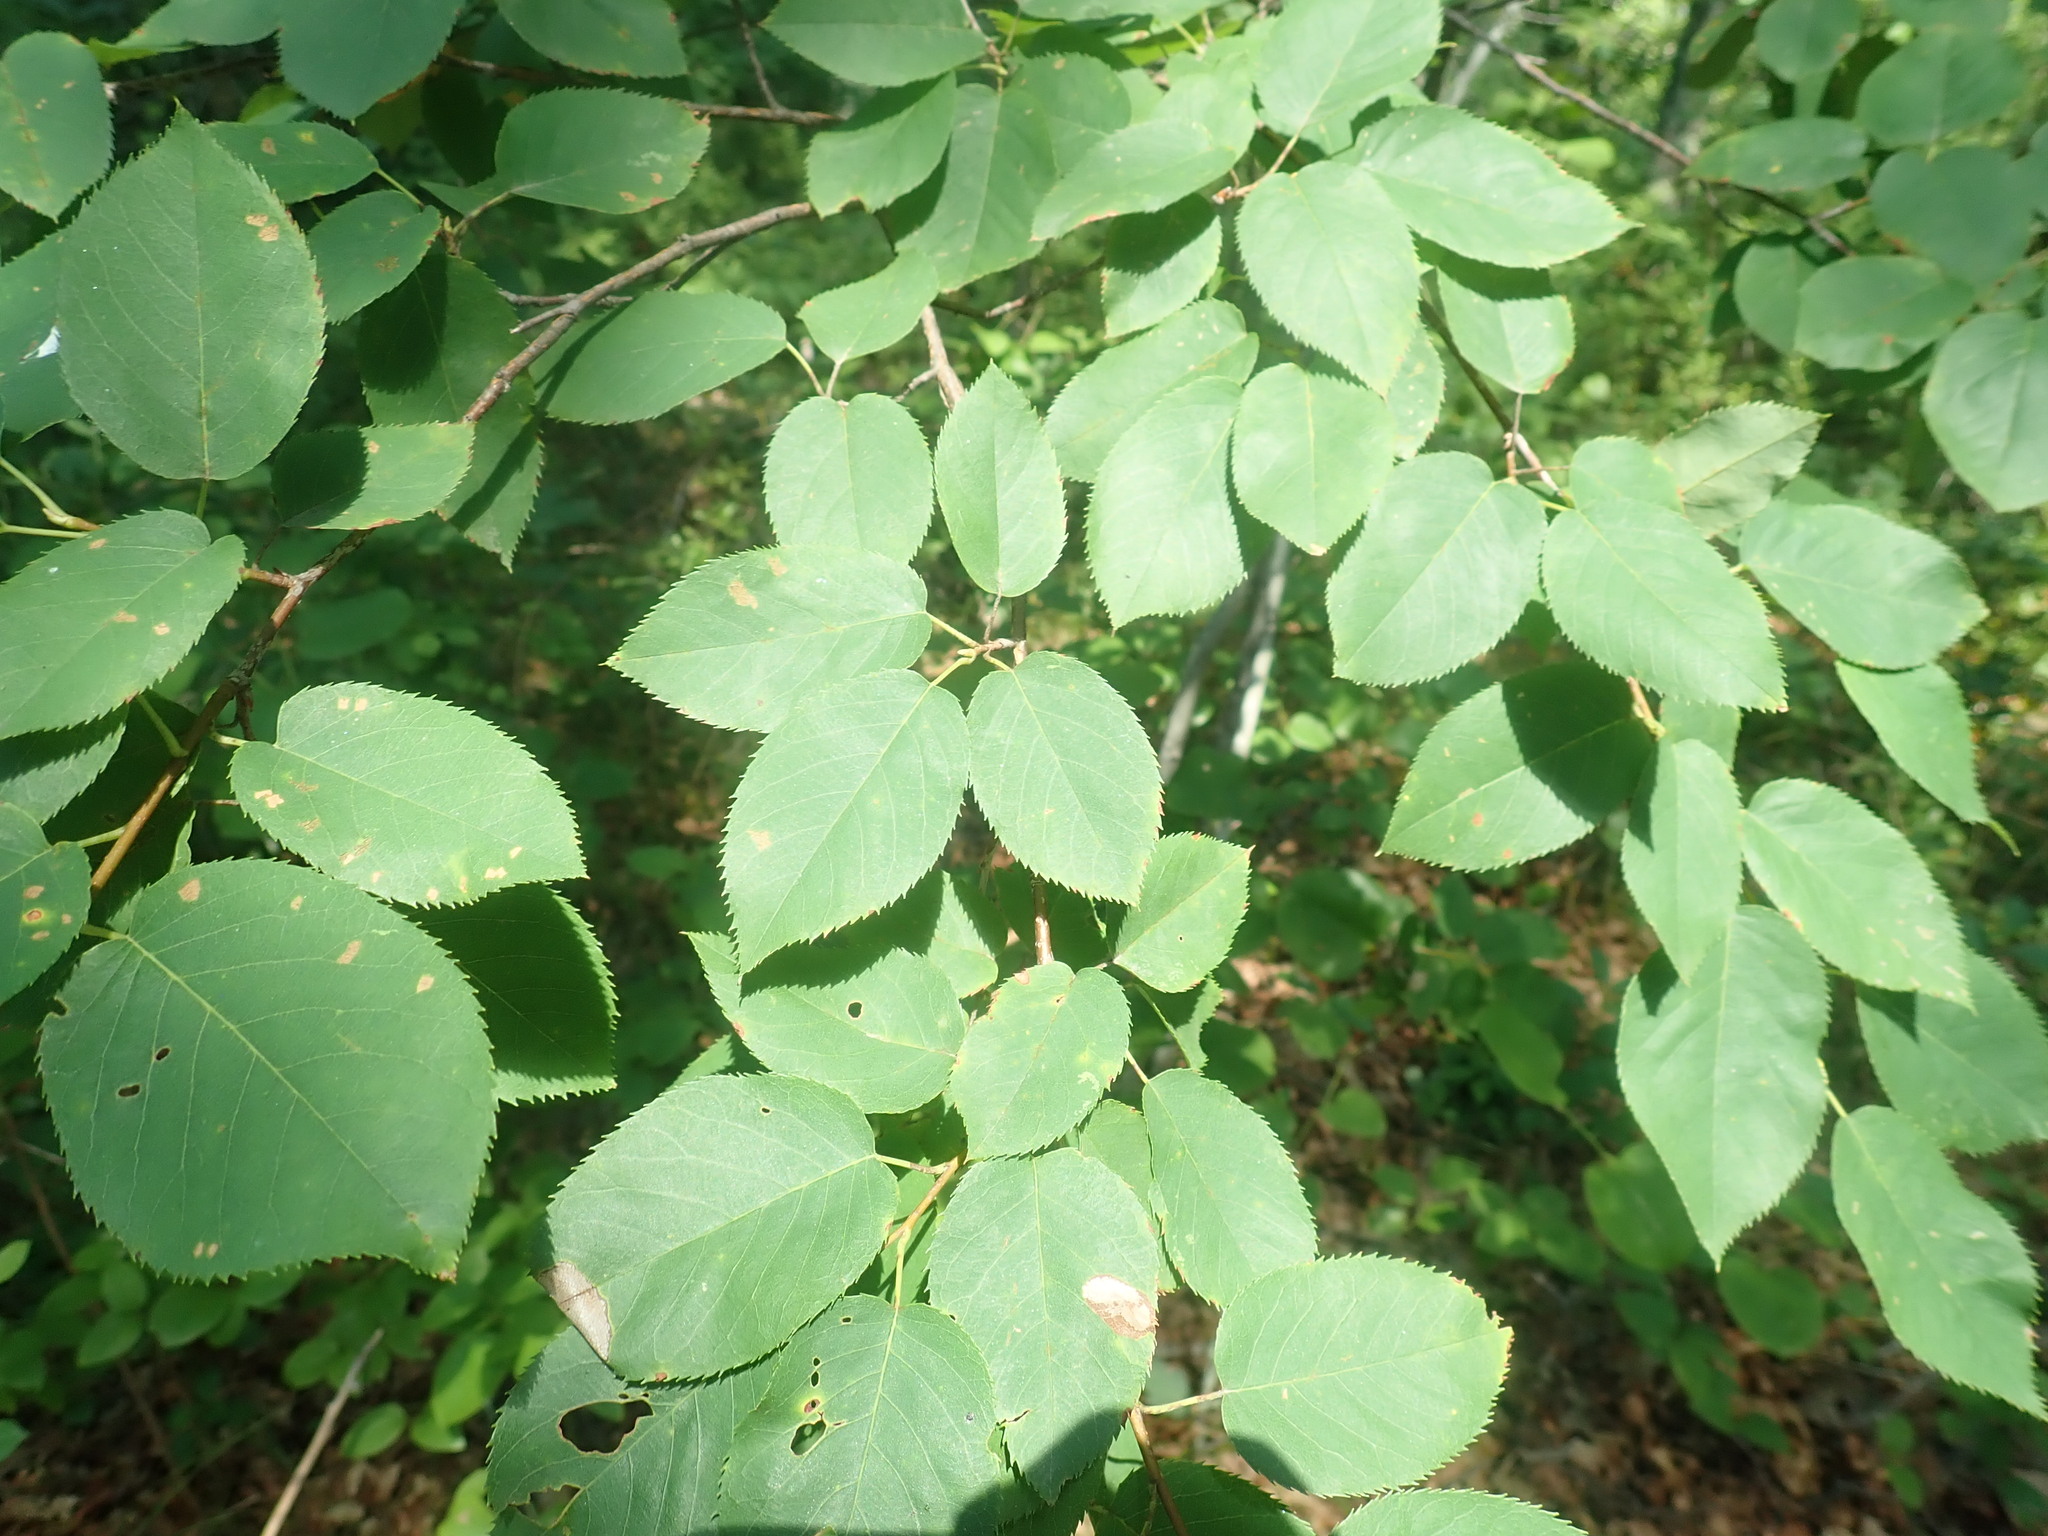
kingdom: Plantae
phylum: Tracheophyta
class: Magnoliopsida
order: Rosales
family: Rosaceae
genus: Amelanchier
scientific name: Amelanchier
